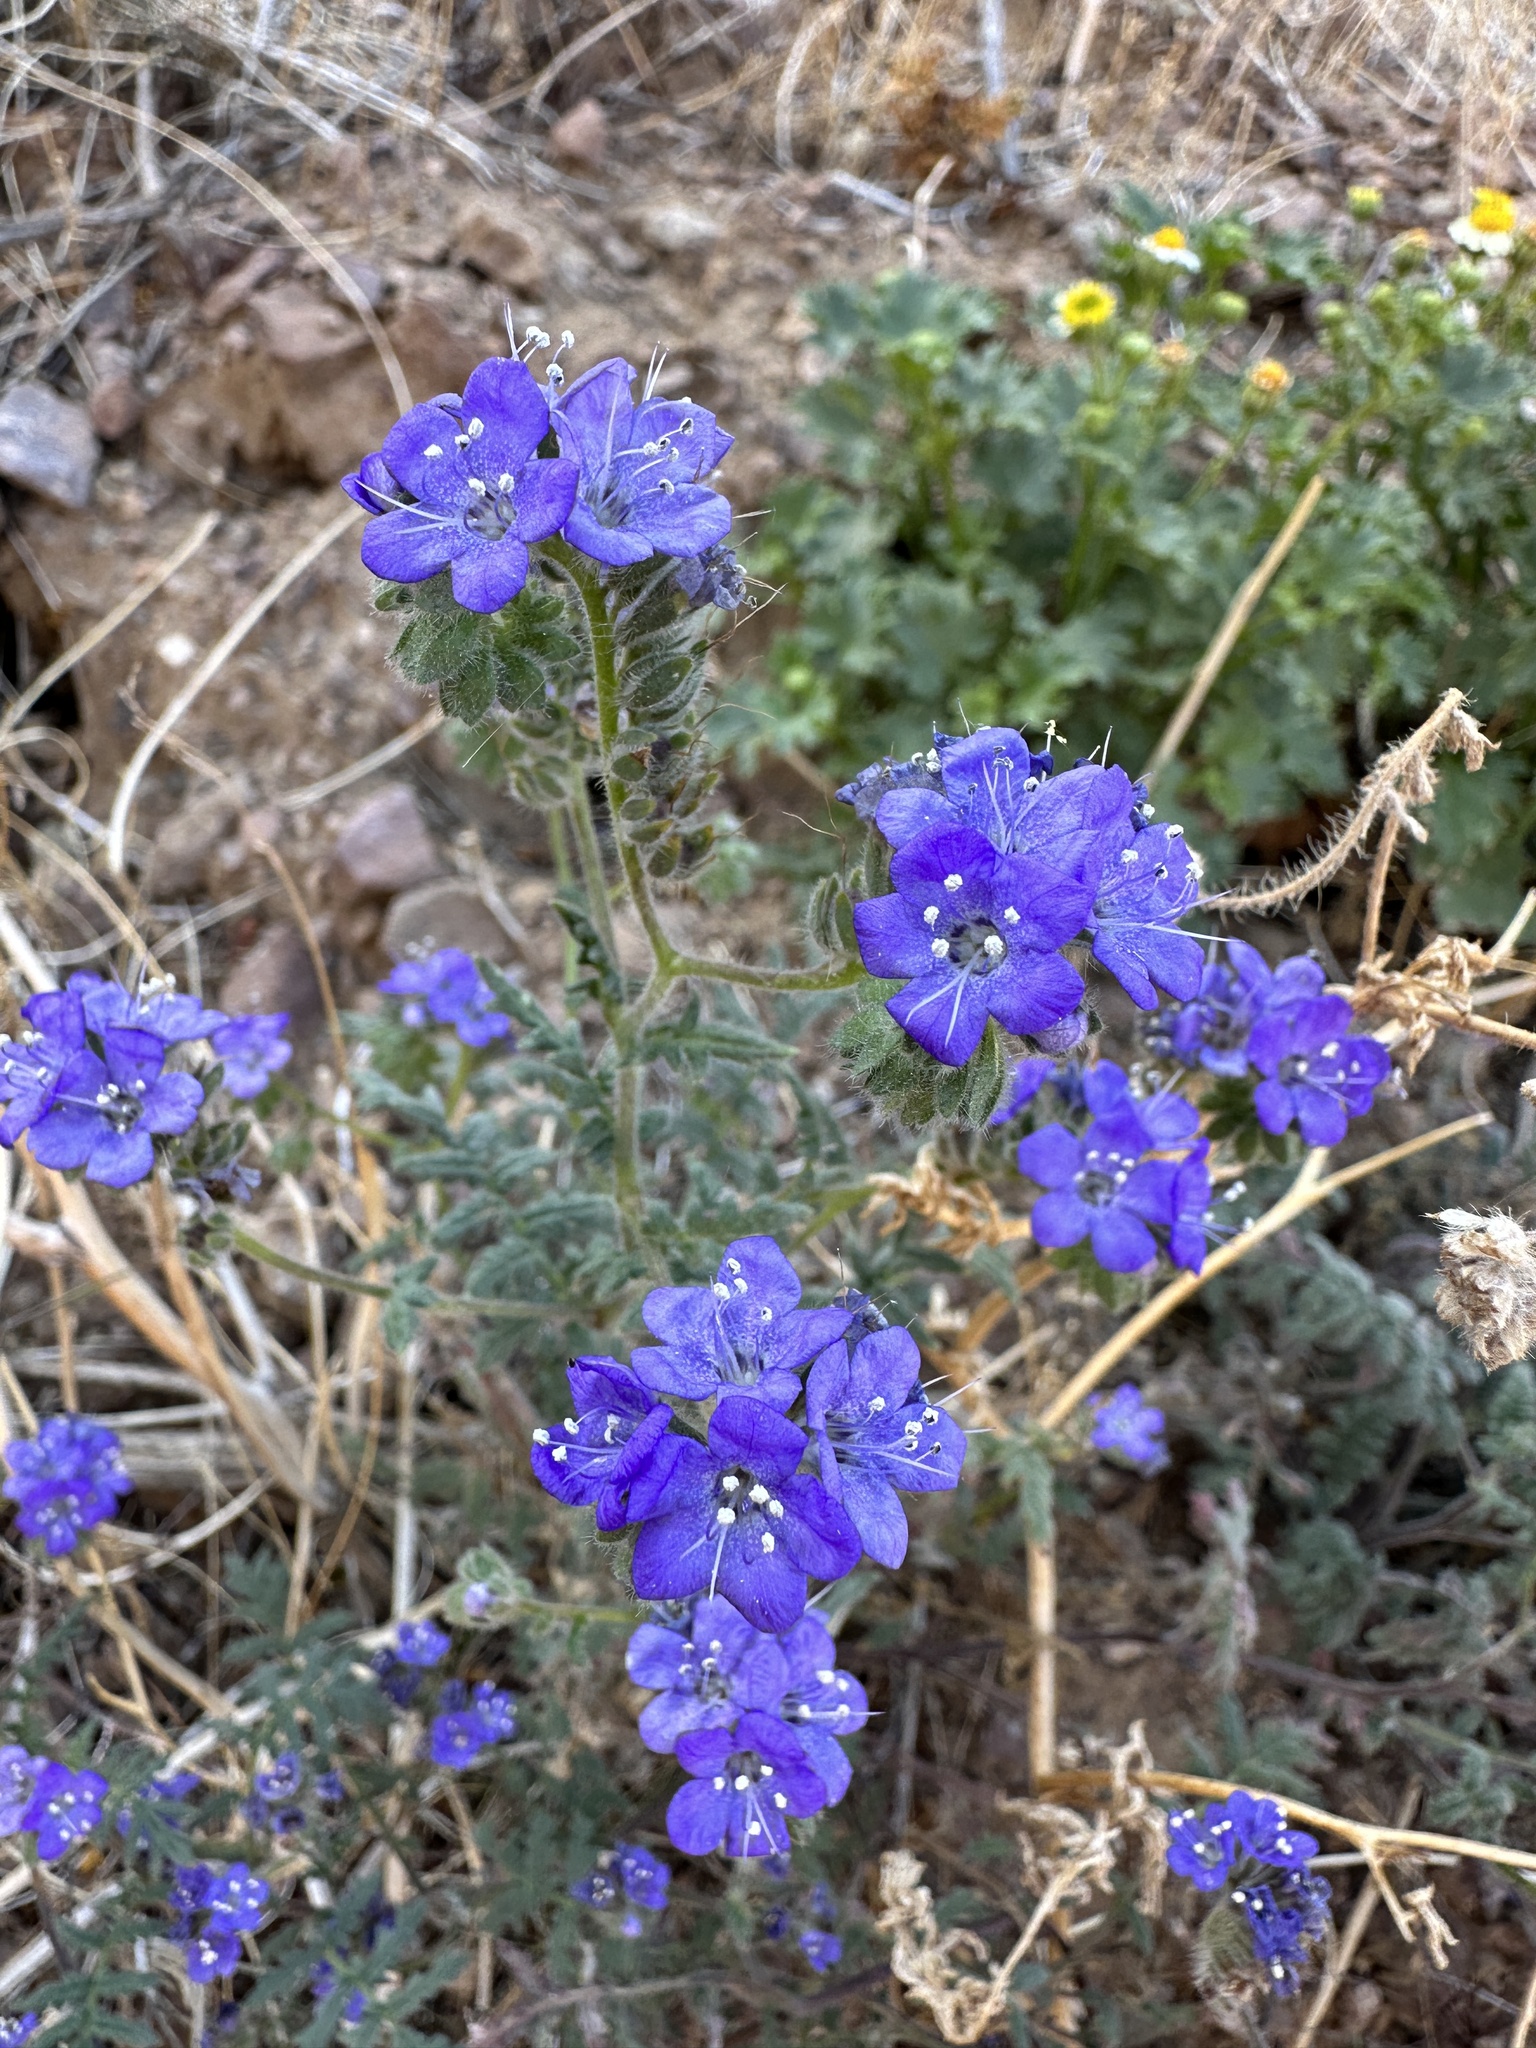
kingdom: Plantae
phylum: Tracheophyta
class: Magnoliopsida
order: Boraginales
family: Hydrophyllaceae
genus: Phacelia
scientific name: Phacelia distans
